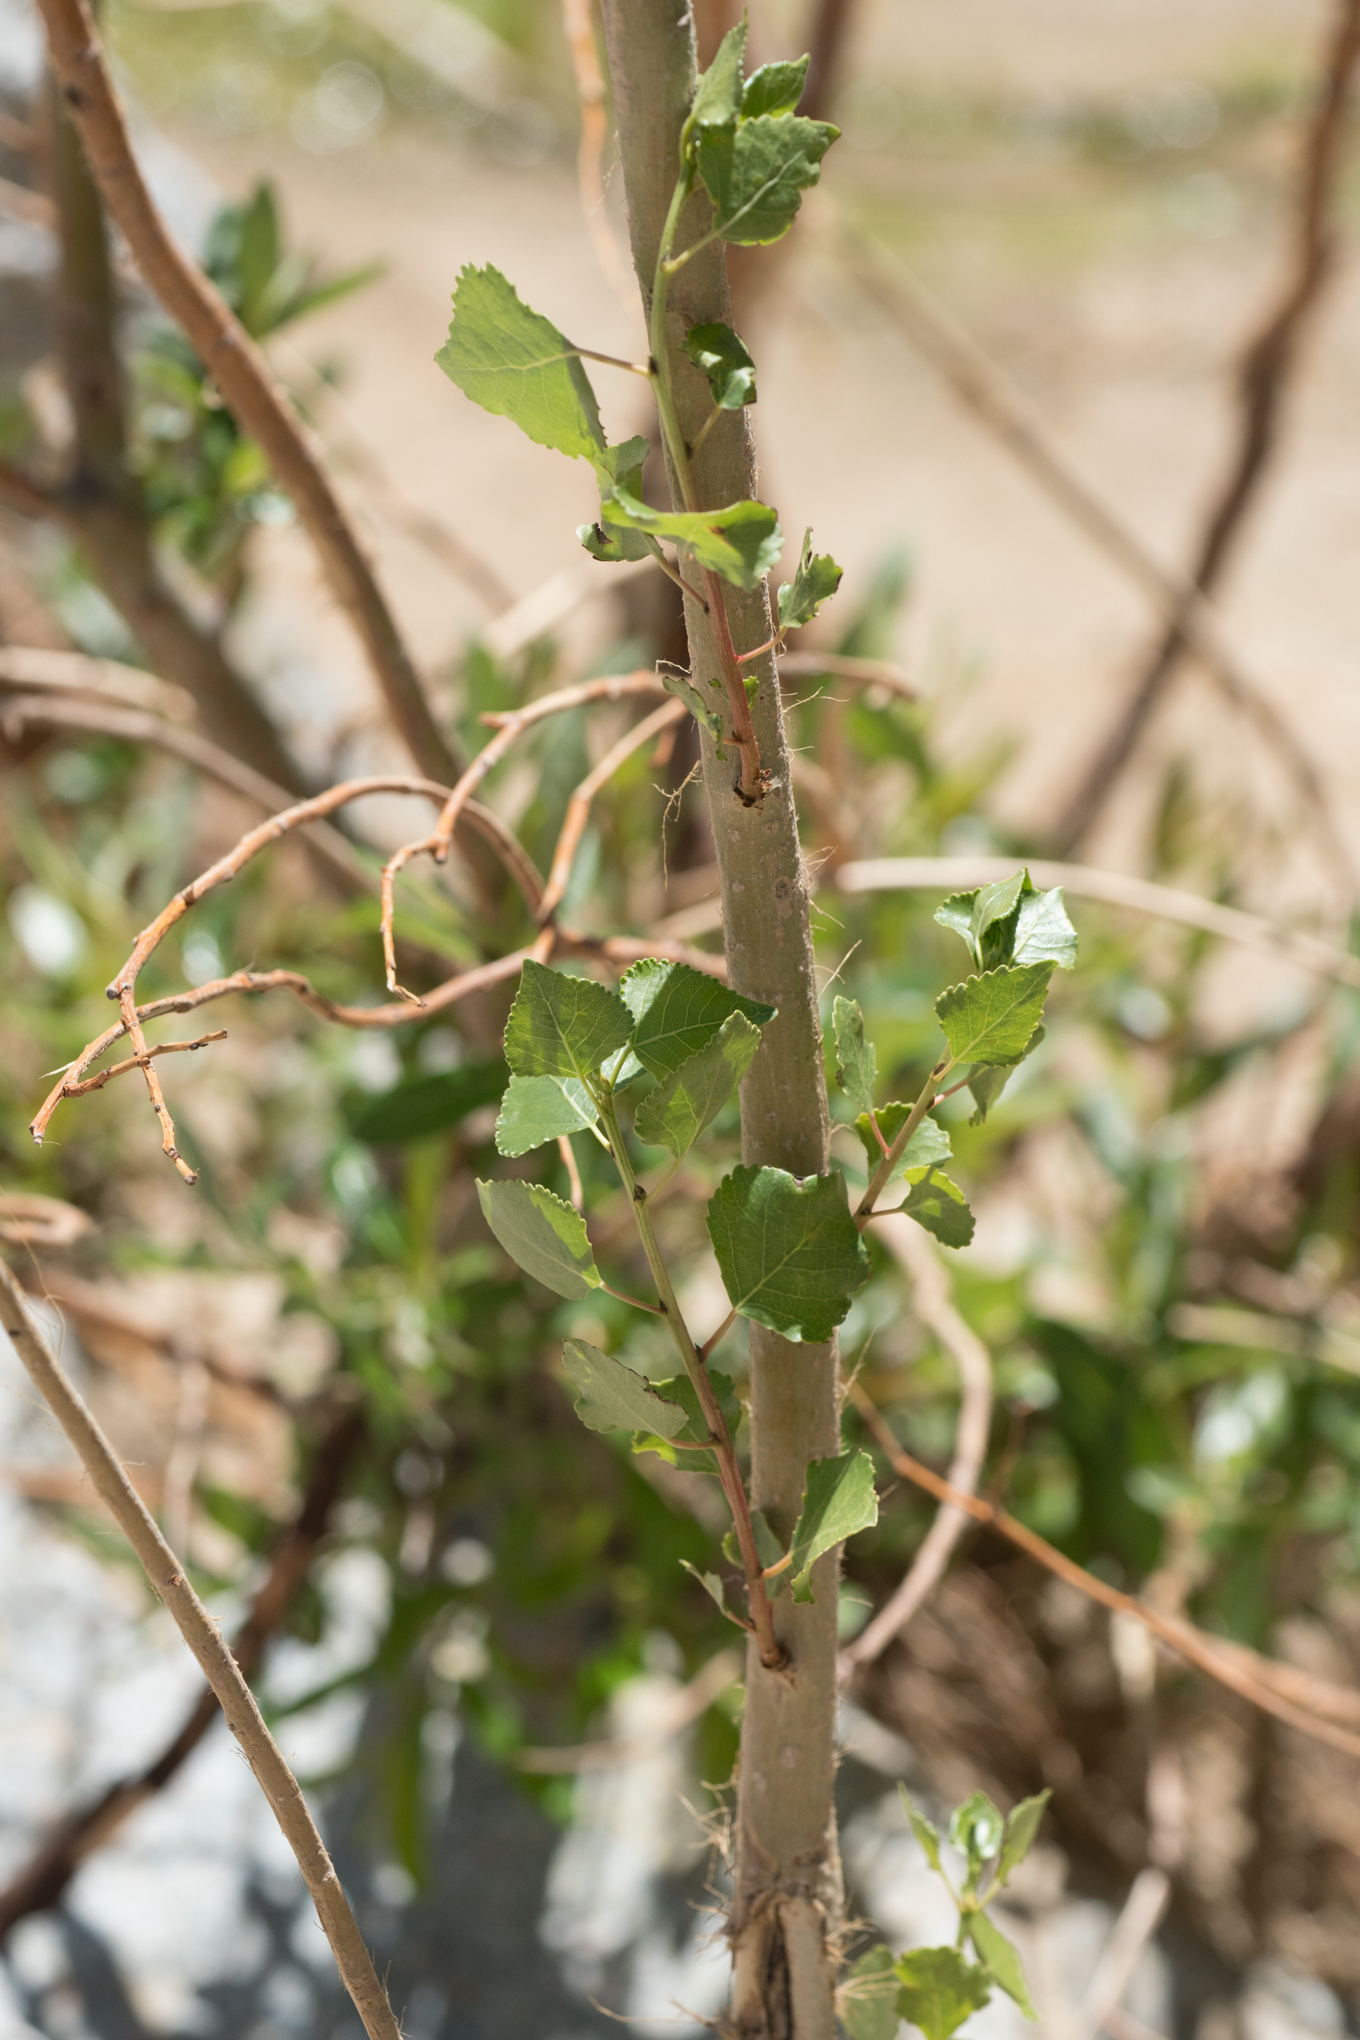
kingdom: Plantae
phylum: Tracheophyta
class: Magnoliopsida
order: Malpighiales
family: Salicaceae
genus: Populus
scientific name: Populus fremontii
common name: Fremont's cottonwood
